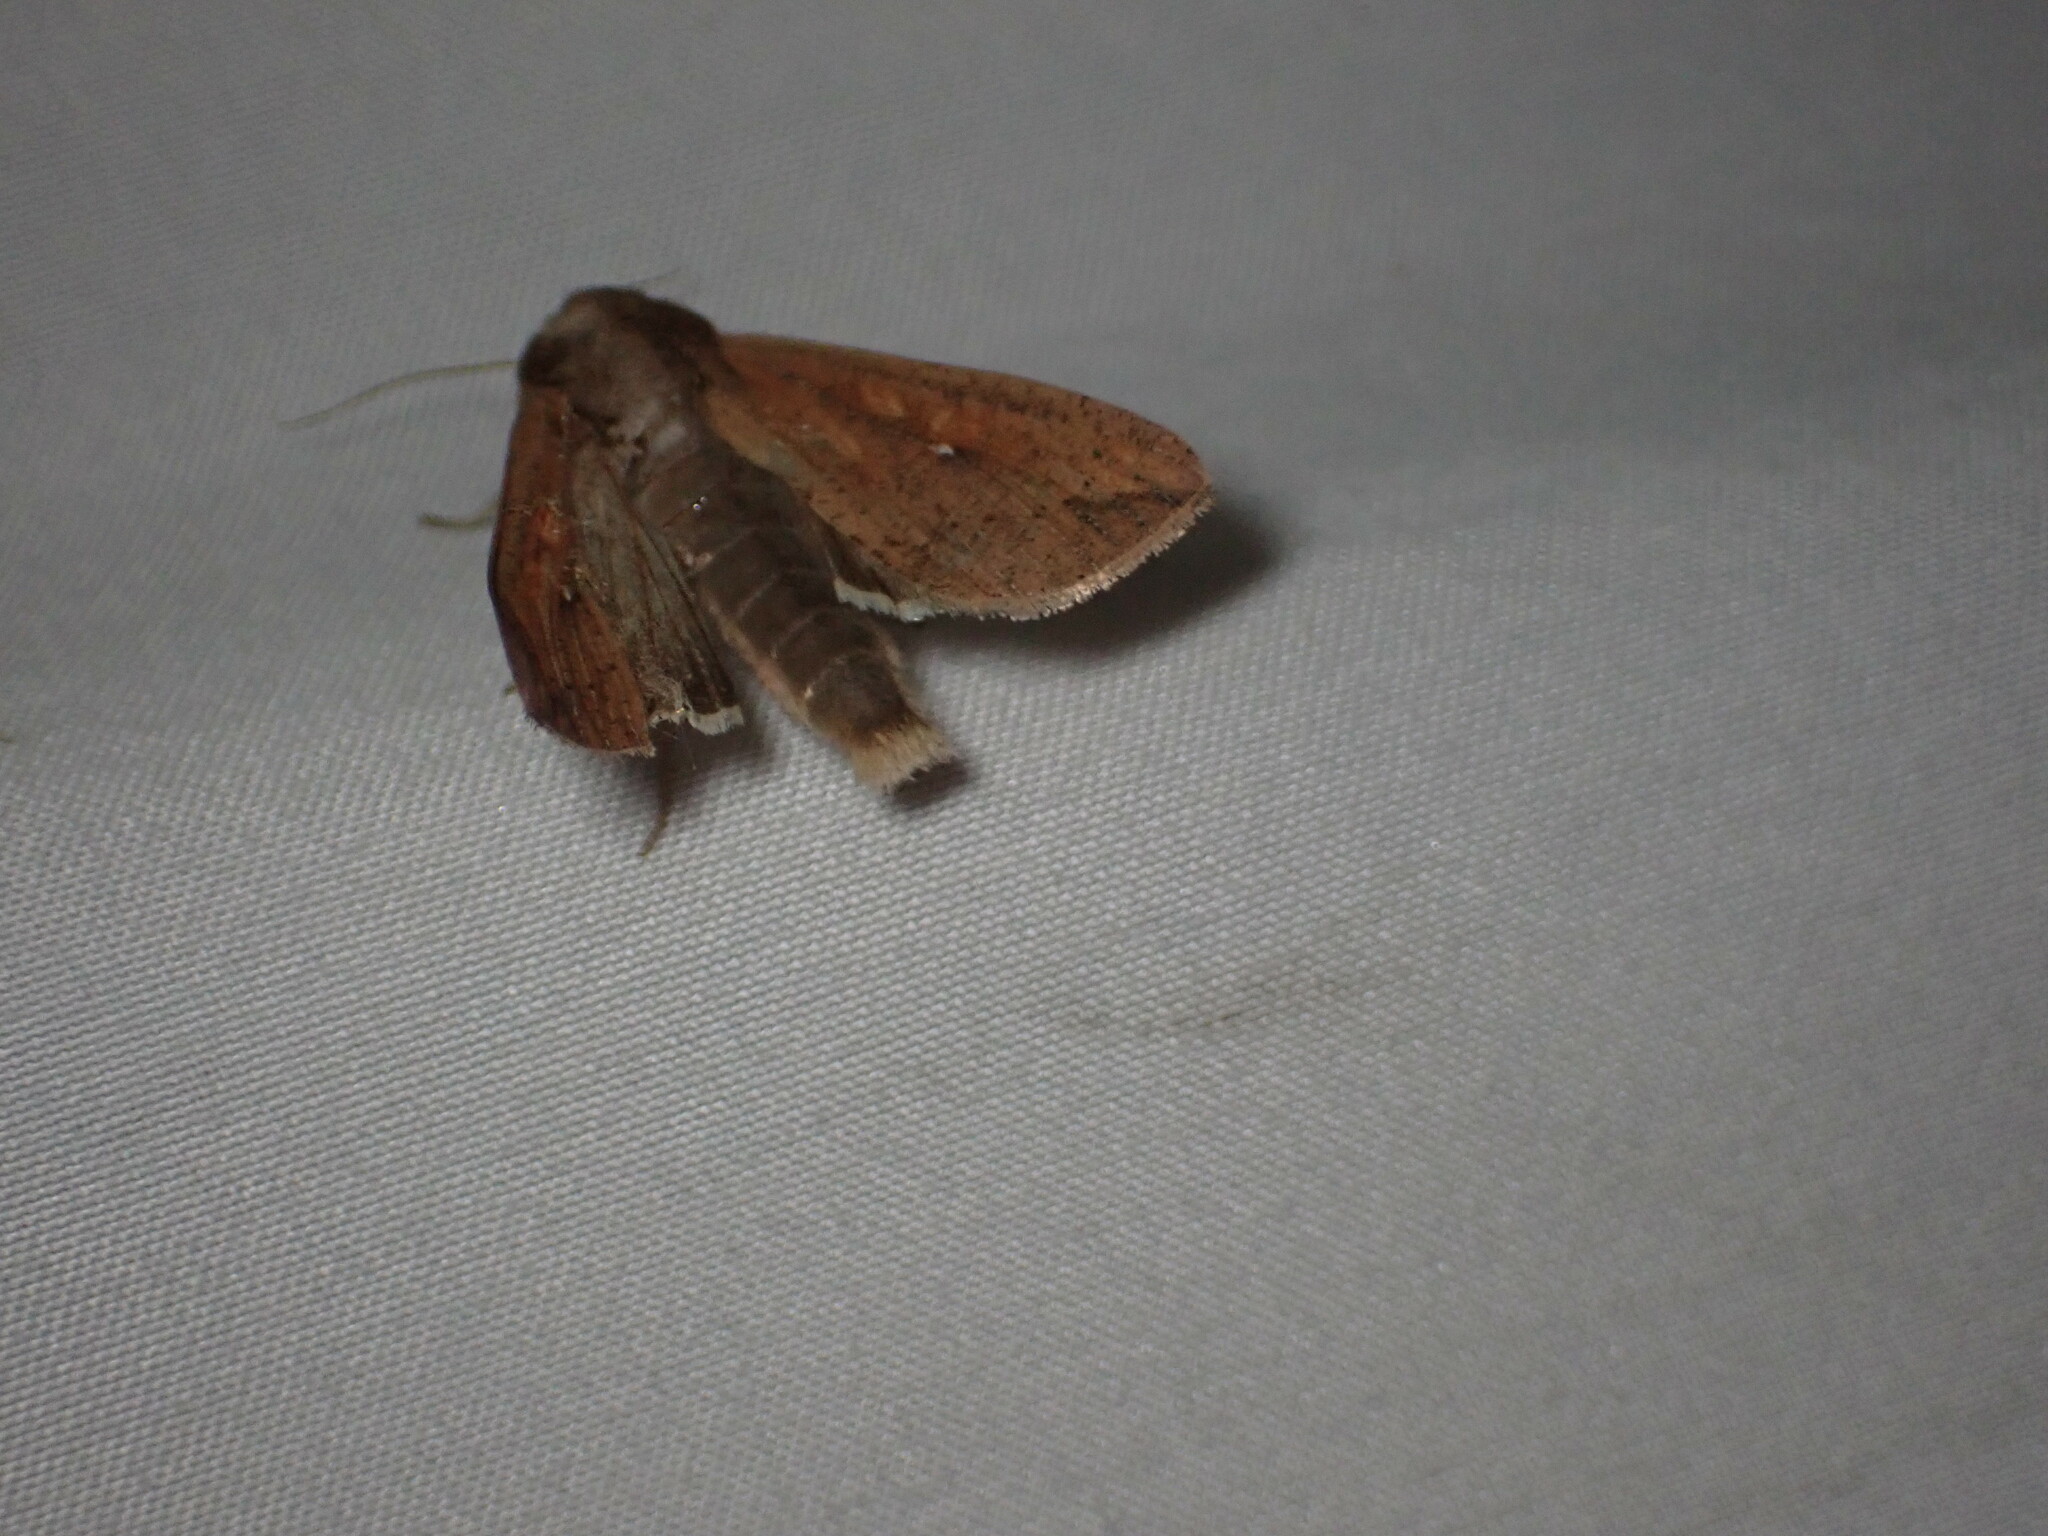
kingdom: Animalia
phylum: Arthropoda
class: Insecta
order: Lepidoptera
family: Noctuidae
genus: Mythimna
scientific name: Mythimna unipuncta
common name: White-speck
